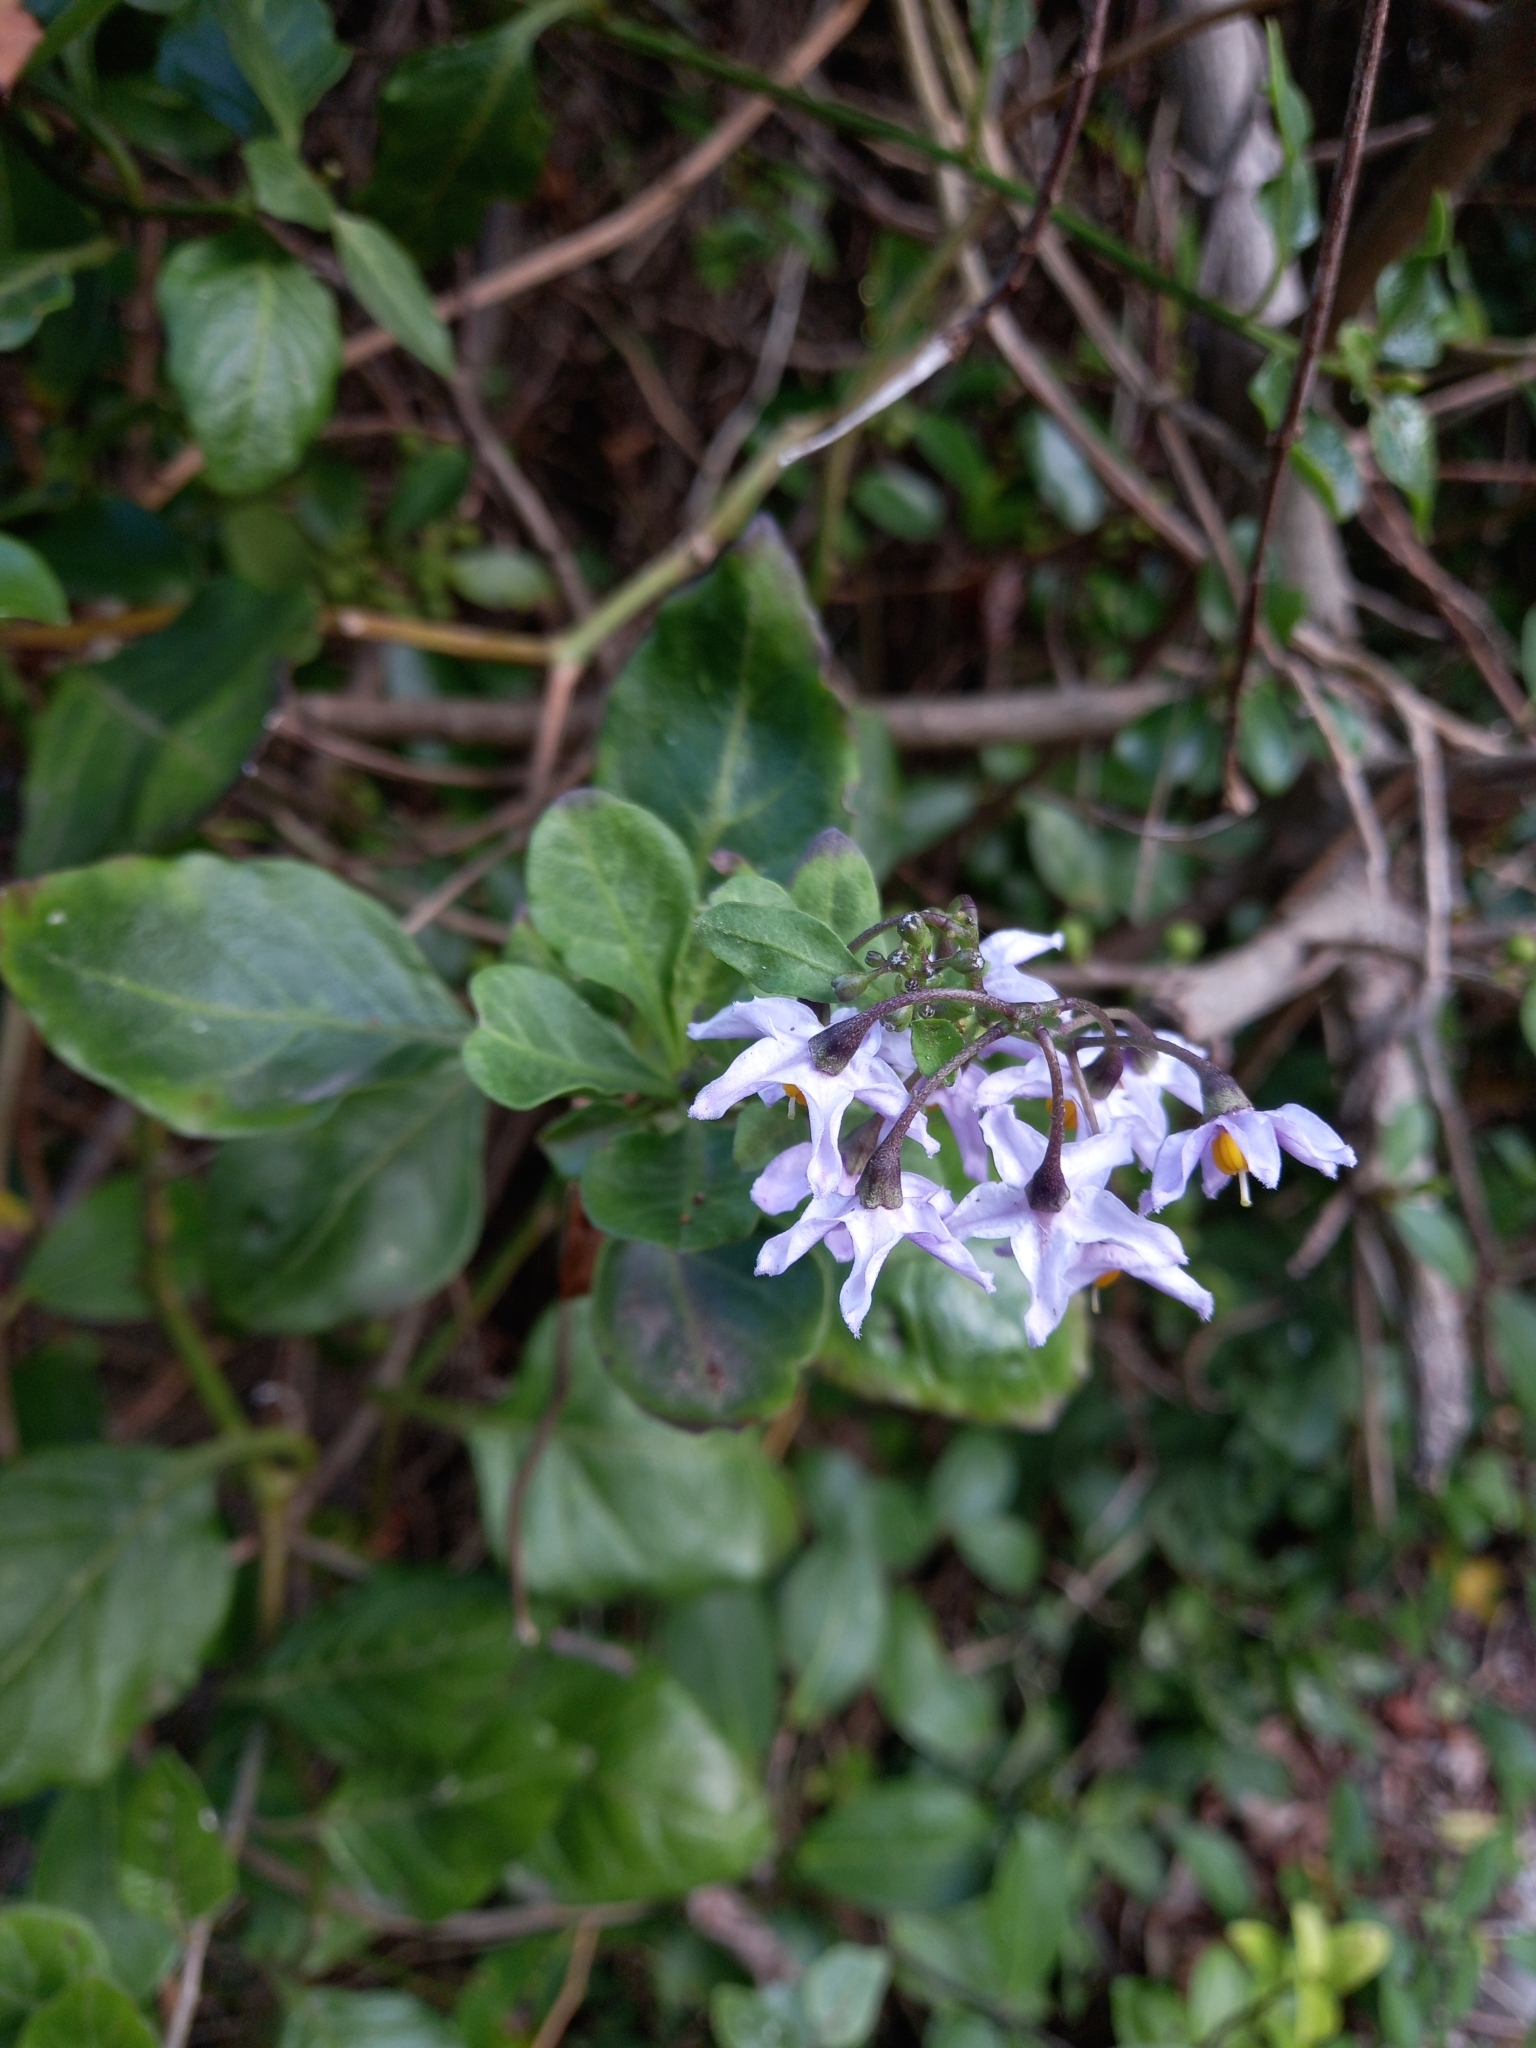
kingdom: Plantae
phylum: Tracheophyta
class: Magnoliopsida
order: Solanales
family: Solanaceae
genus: Solanum
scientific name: Solanum africanum
